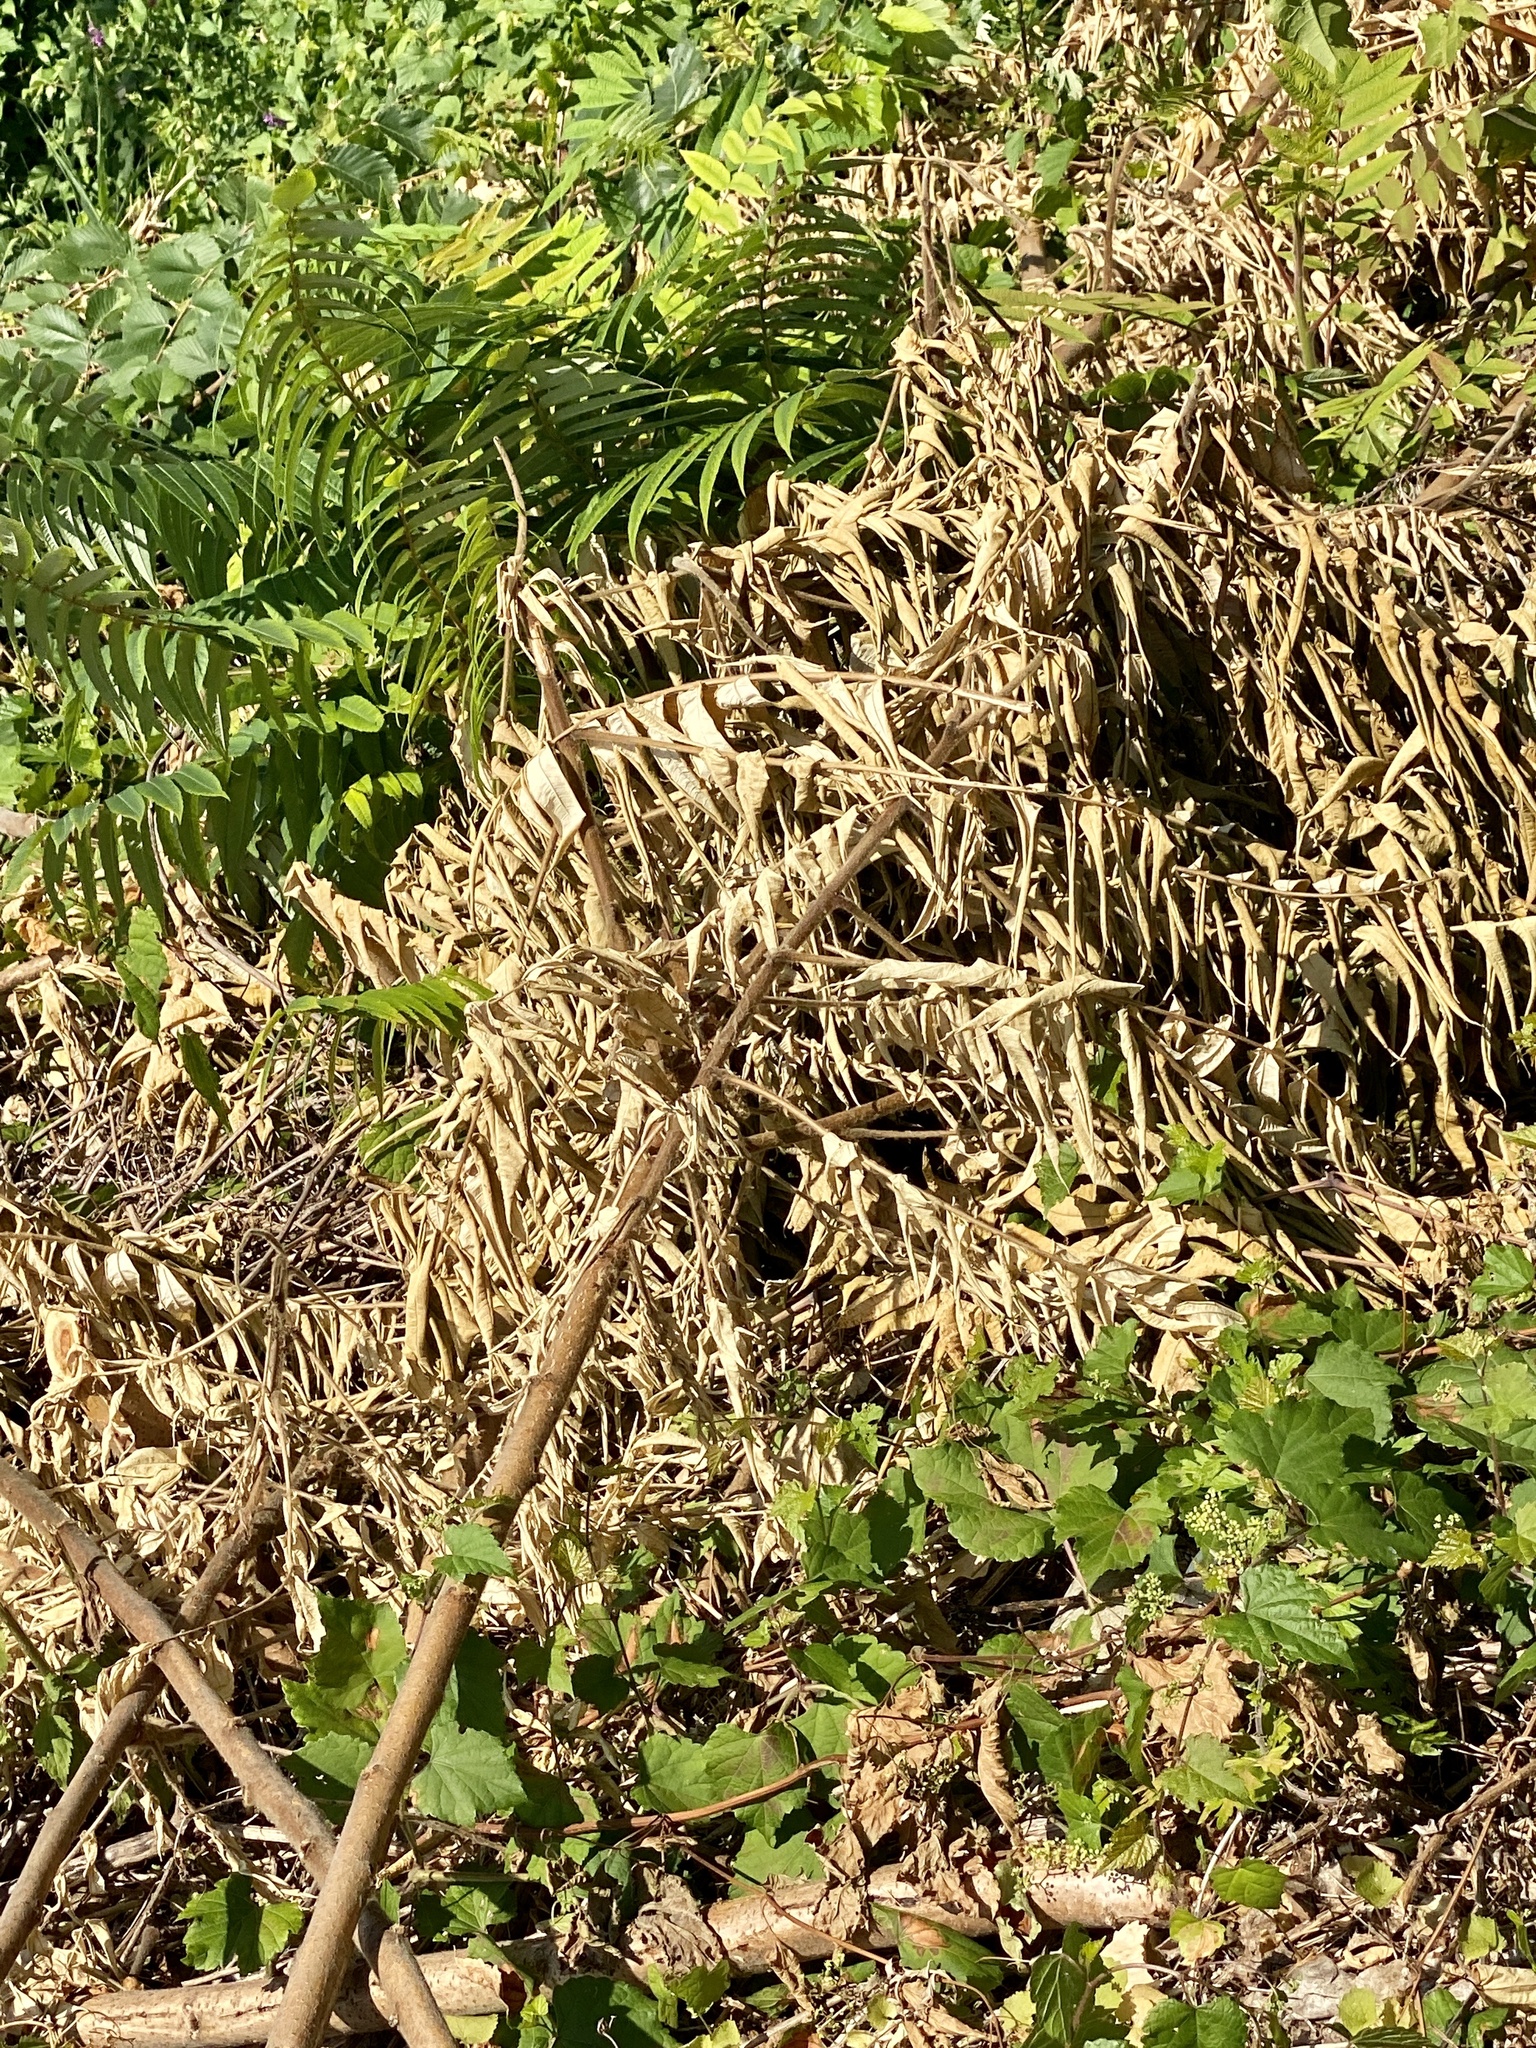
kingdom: Plantae
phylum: Tracheophyta
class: Magnoliopsida
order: Sapindales
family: Anacardiaceae
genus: Rhus
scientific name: Rhus typhina
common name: Staghorn sumac
